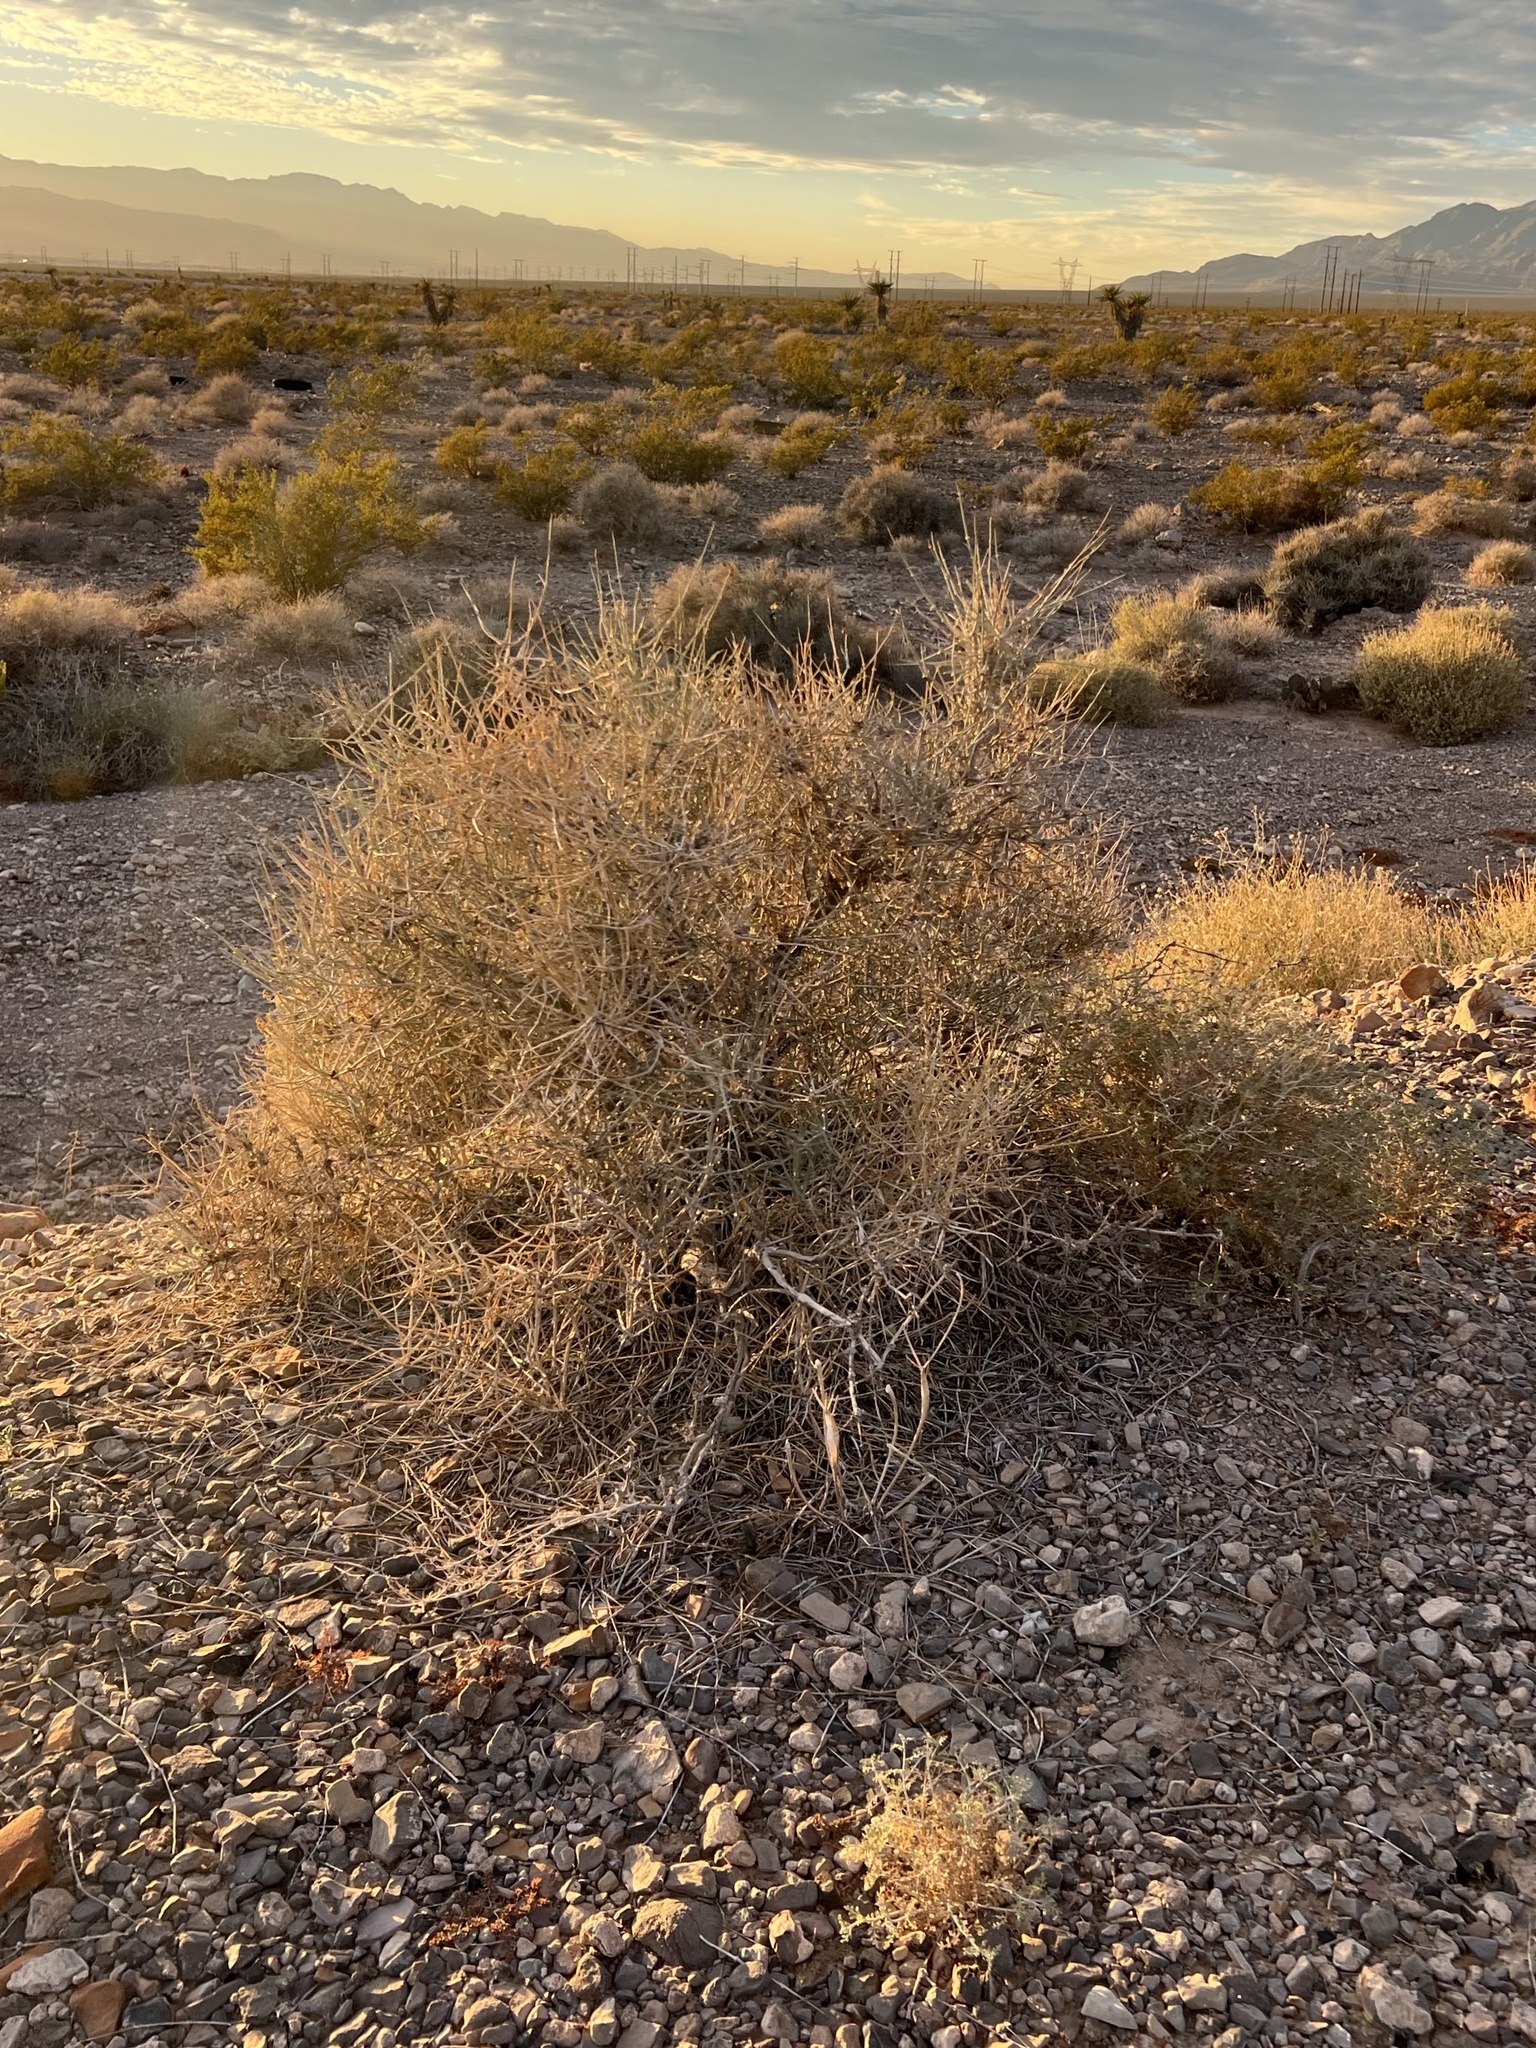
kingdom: Plantae
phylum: Tracheophyta
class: Gnetopsida
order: Ephedrales
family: Ephedraceae
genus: Ephedra
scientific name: Ephedra nevadensis
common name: Gray ephedra
